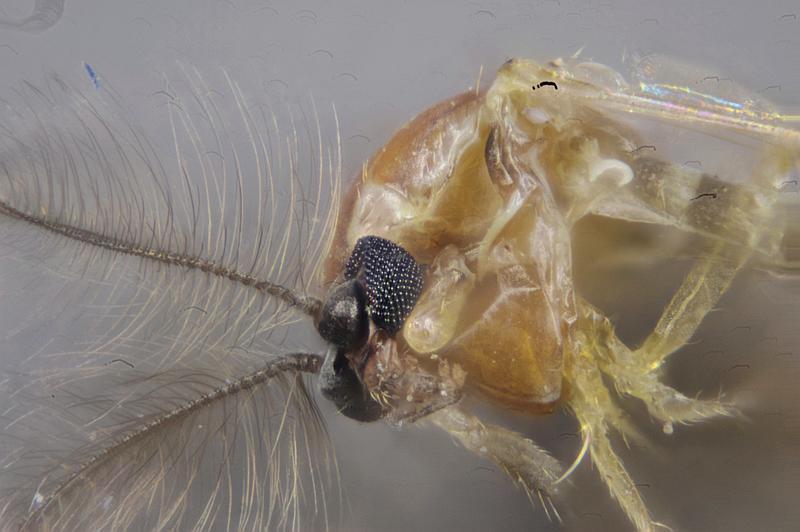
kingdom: Animalia
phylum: Arthropoda
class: Insecta
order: Diptera
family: Chironomidae
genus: Procladius
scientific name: Procladius bellus
